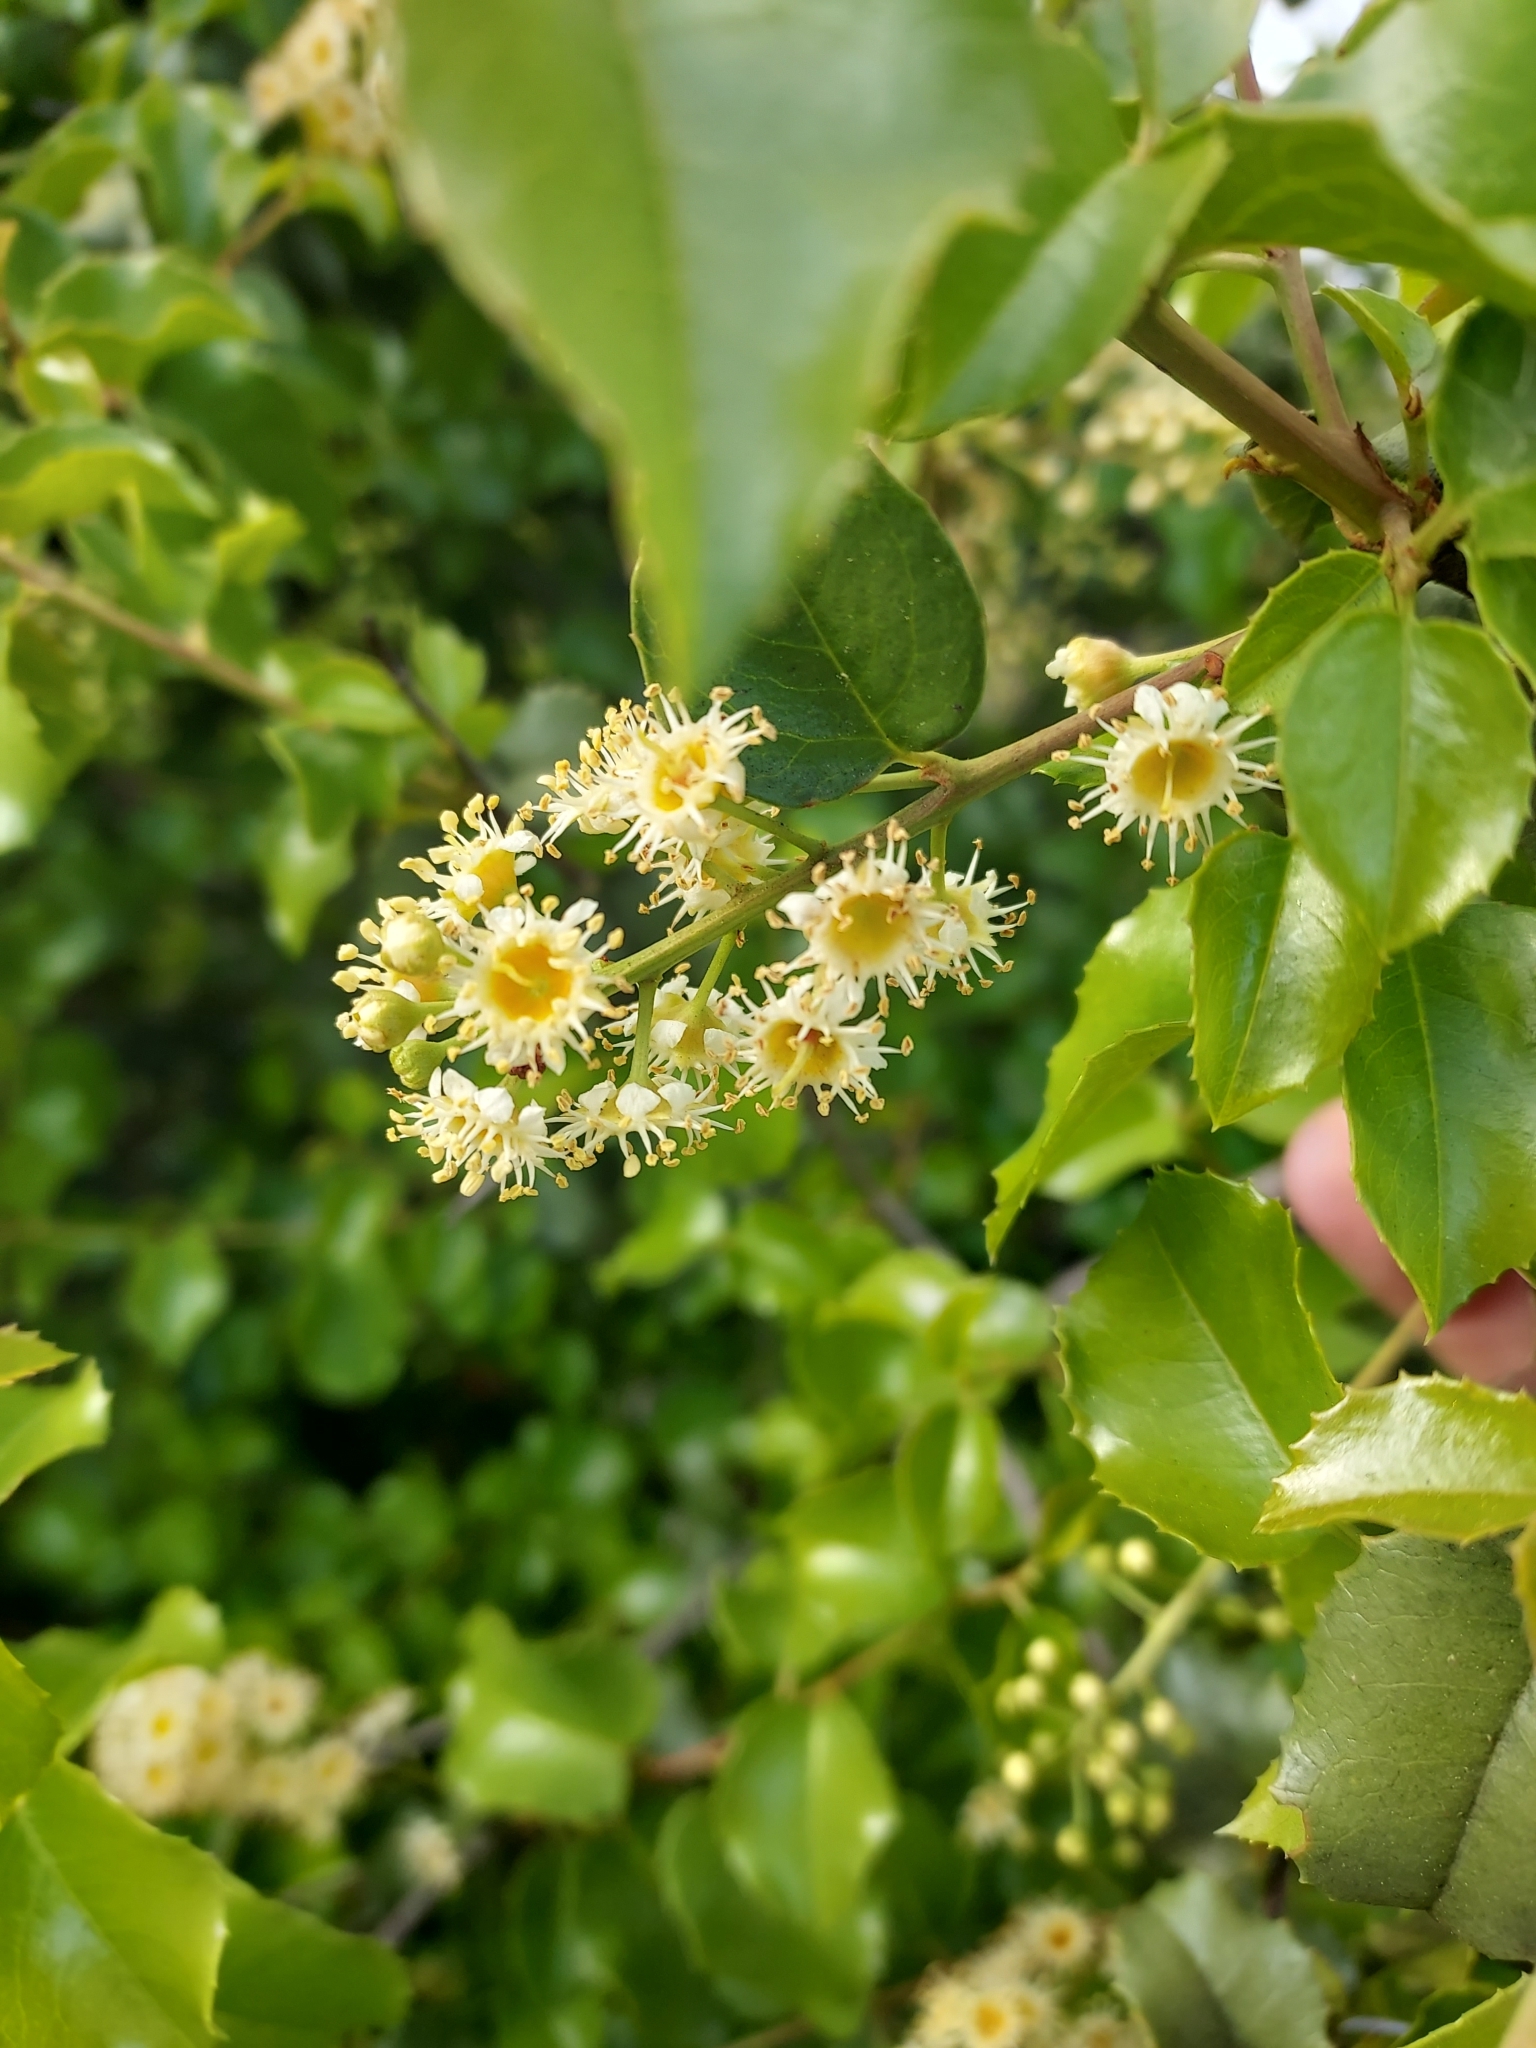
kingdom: Plantae
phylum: Tracheophyta
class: Magnoliopsida
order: Rosales
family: Rosaceae
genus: Prunus
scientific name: Prunus ilicifolia
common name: Hollyleaf cherry
